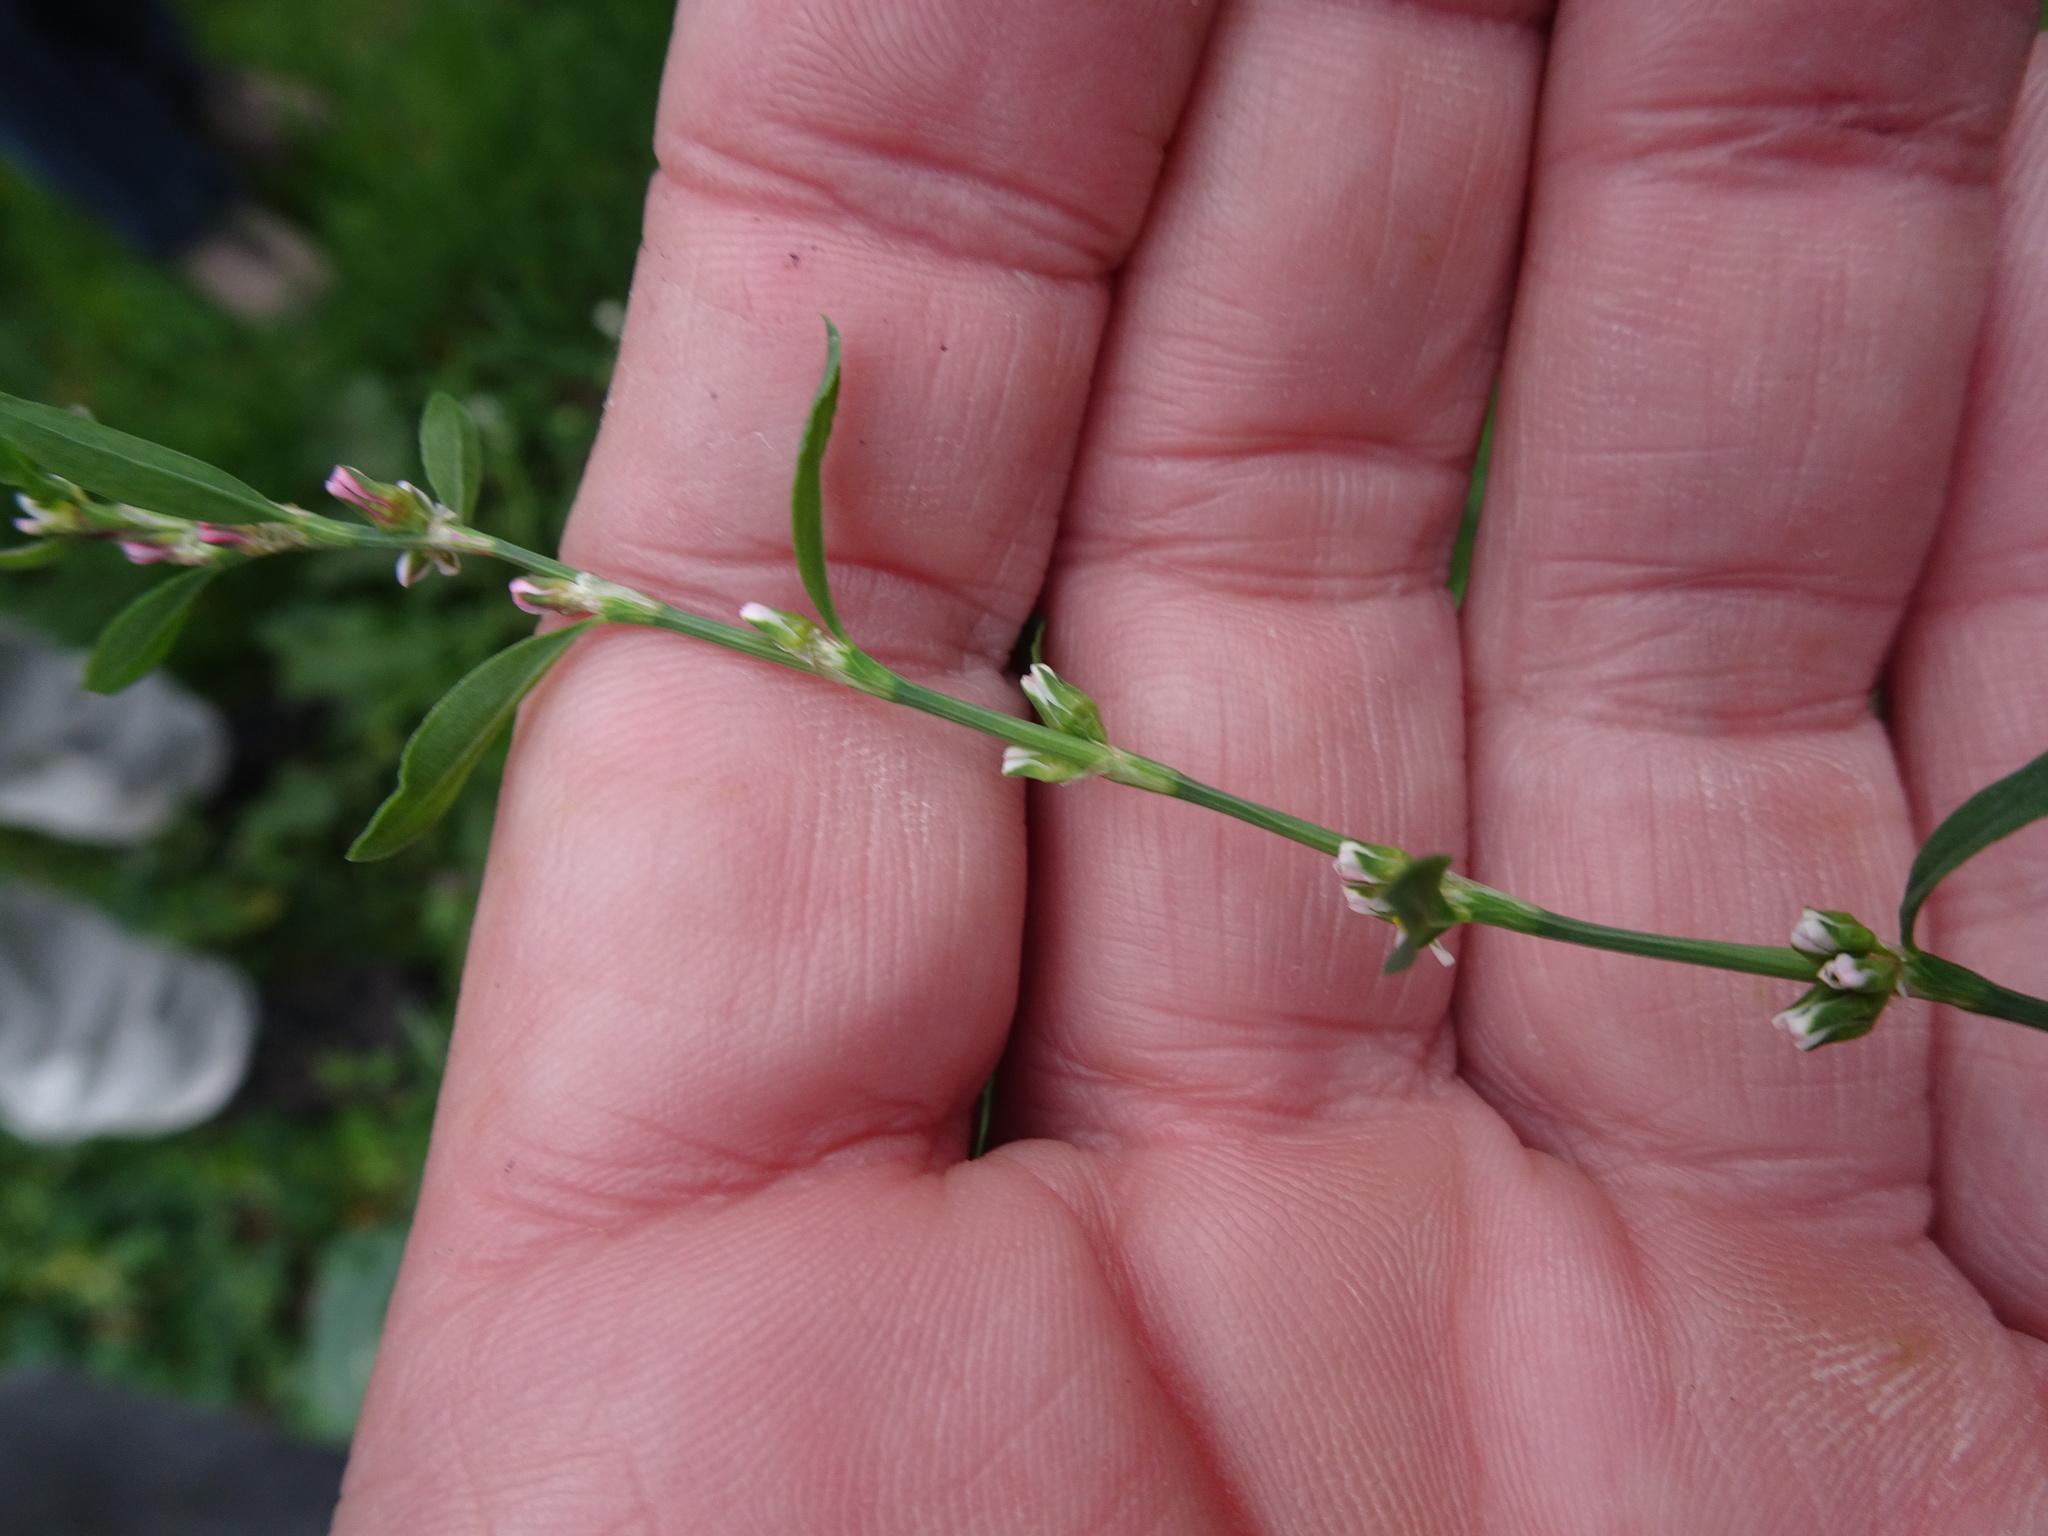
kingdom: Plantae
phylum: Tracheophyta
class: Magnoliopsida
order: Caryophyllales
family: Polygonaceae
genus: Polygonum
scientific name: Polygonum aviculare
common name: Prostrate knotweed
